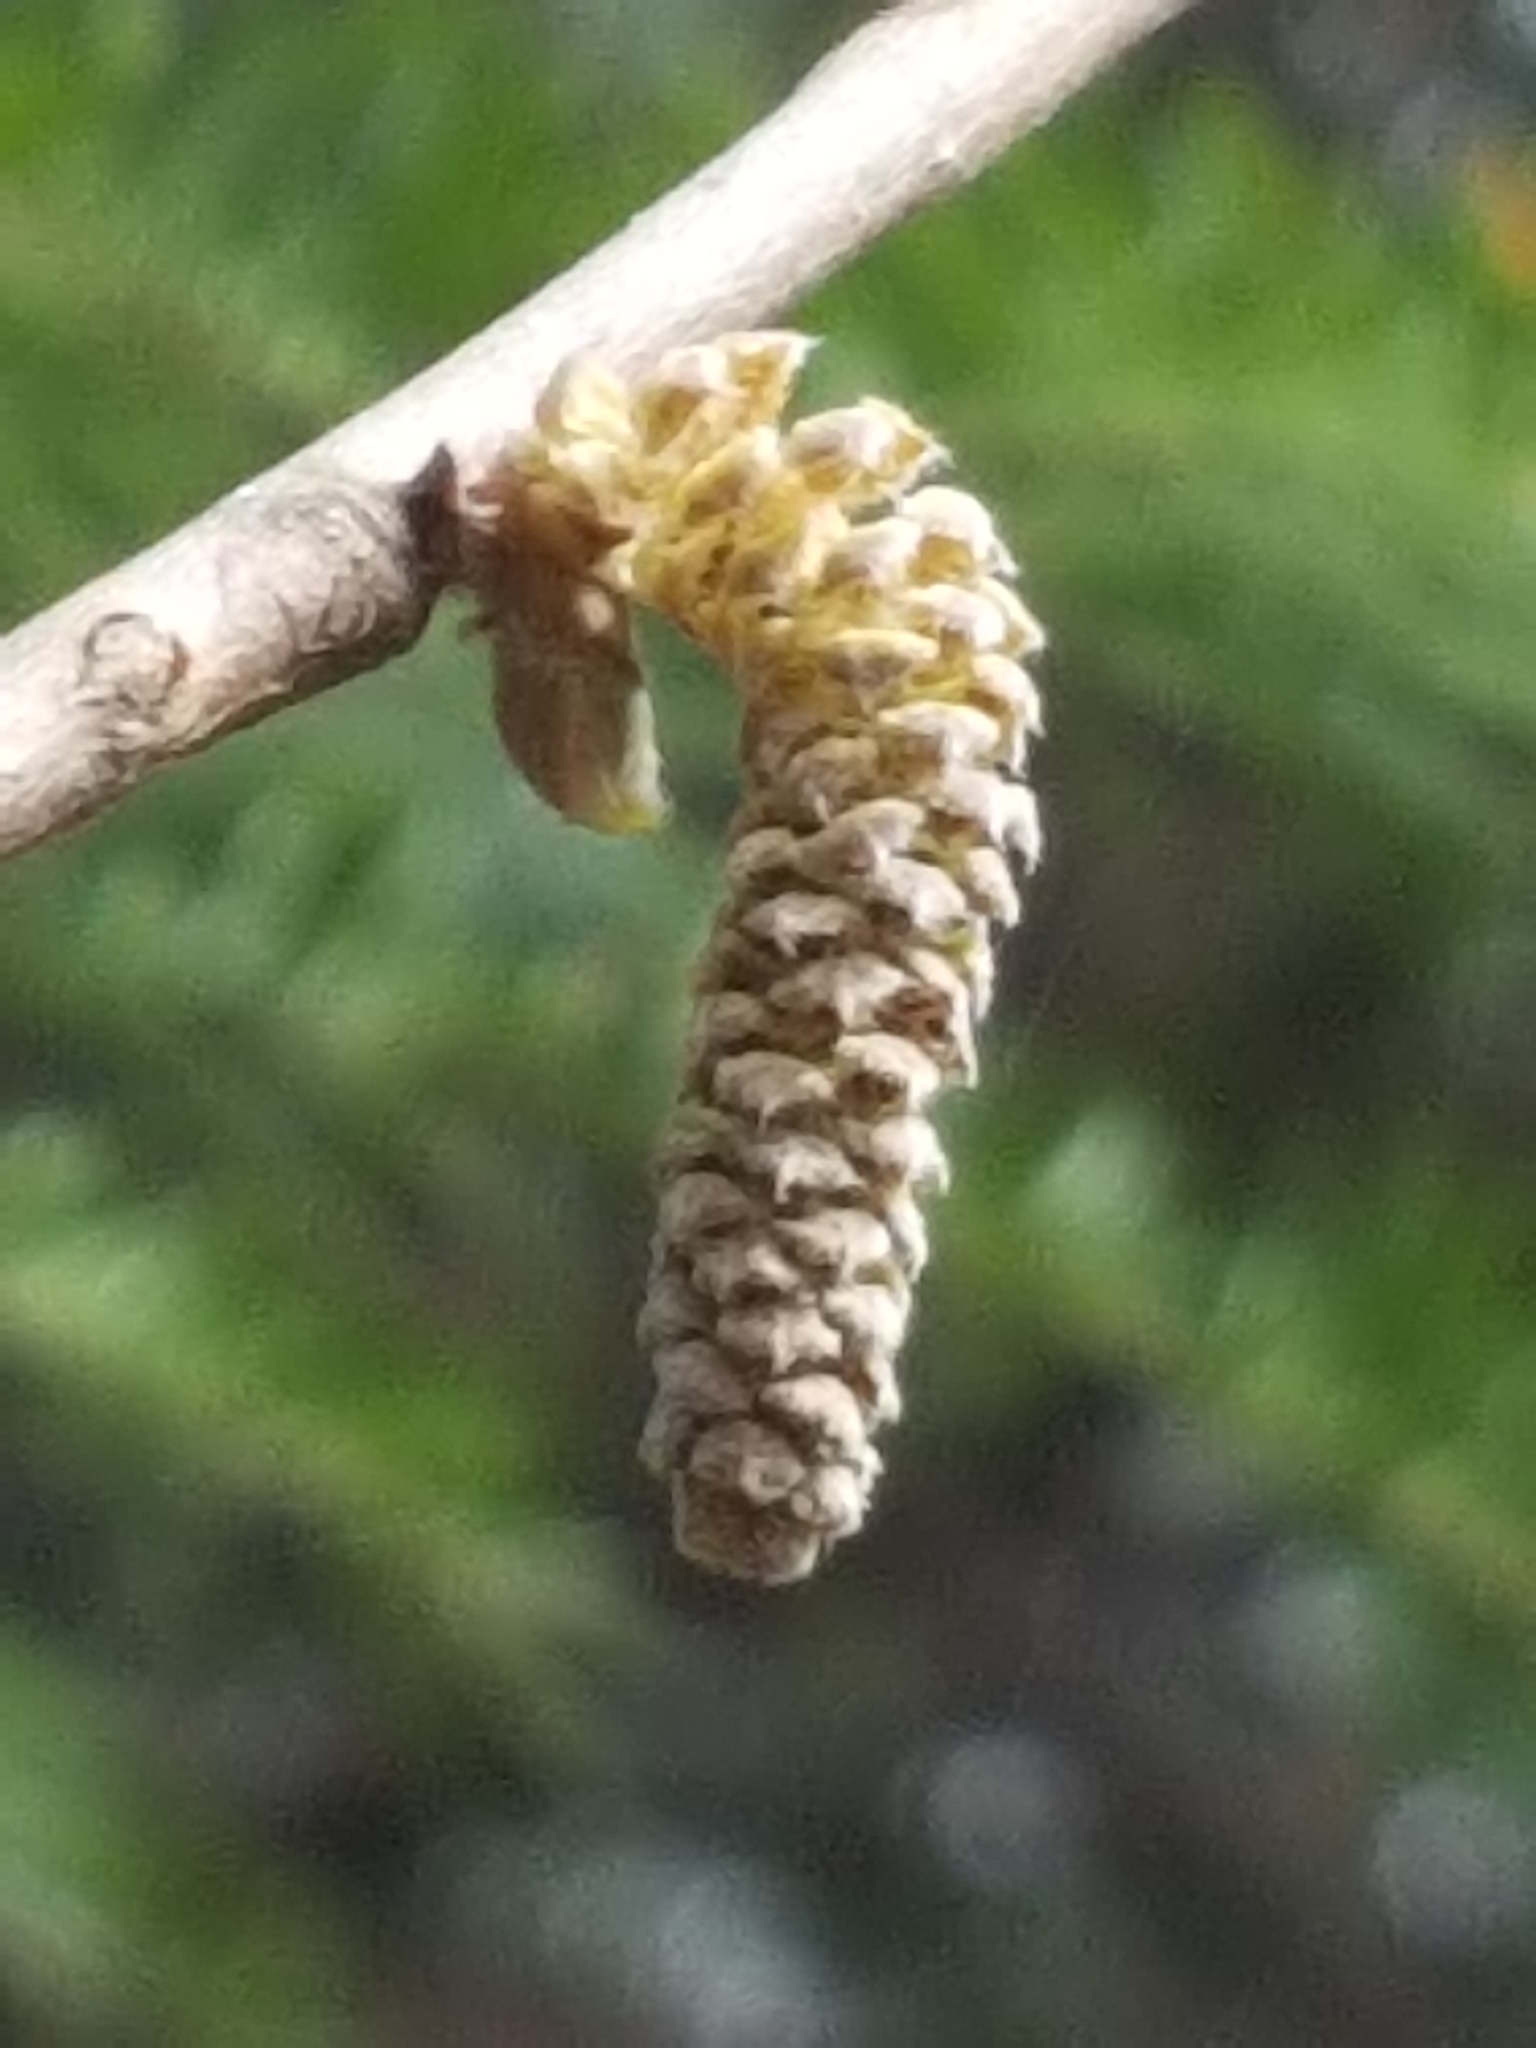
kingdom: Plantae
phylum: Tracheophyta
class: Magnoliopsida
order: Fagales
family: Betulaceae
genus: Corylus
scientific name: Corylus cornuta
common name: Beaked hazel
